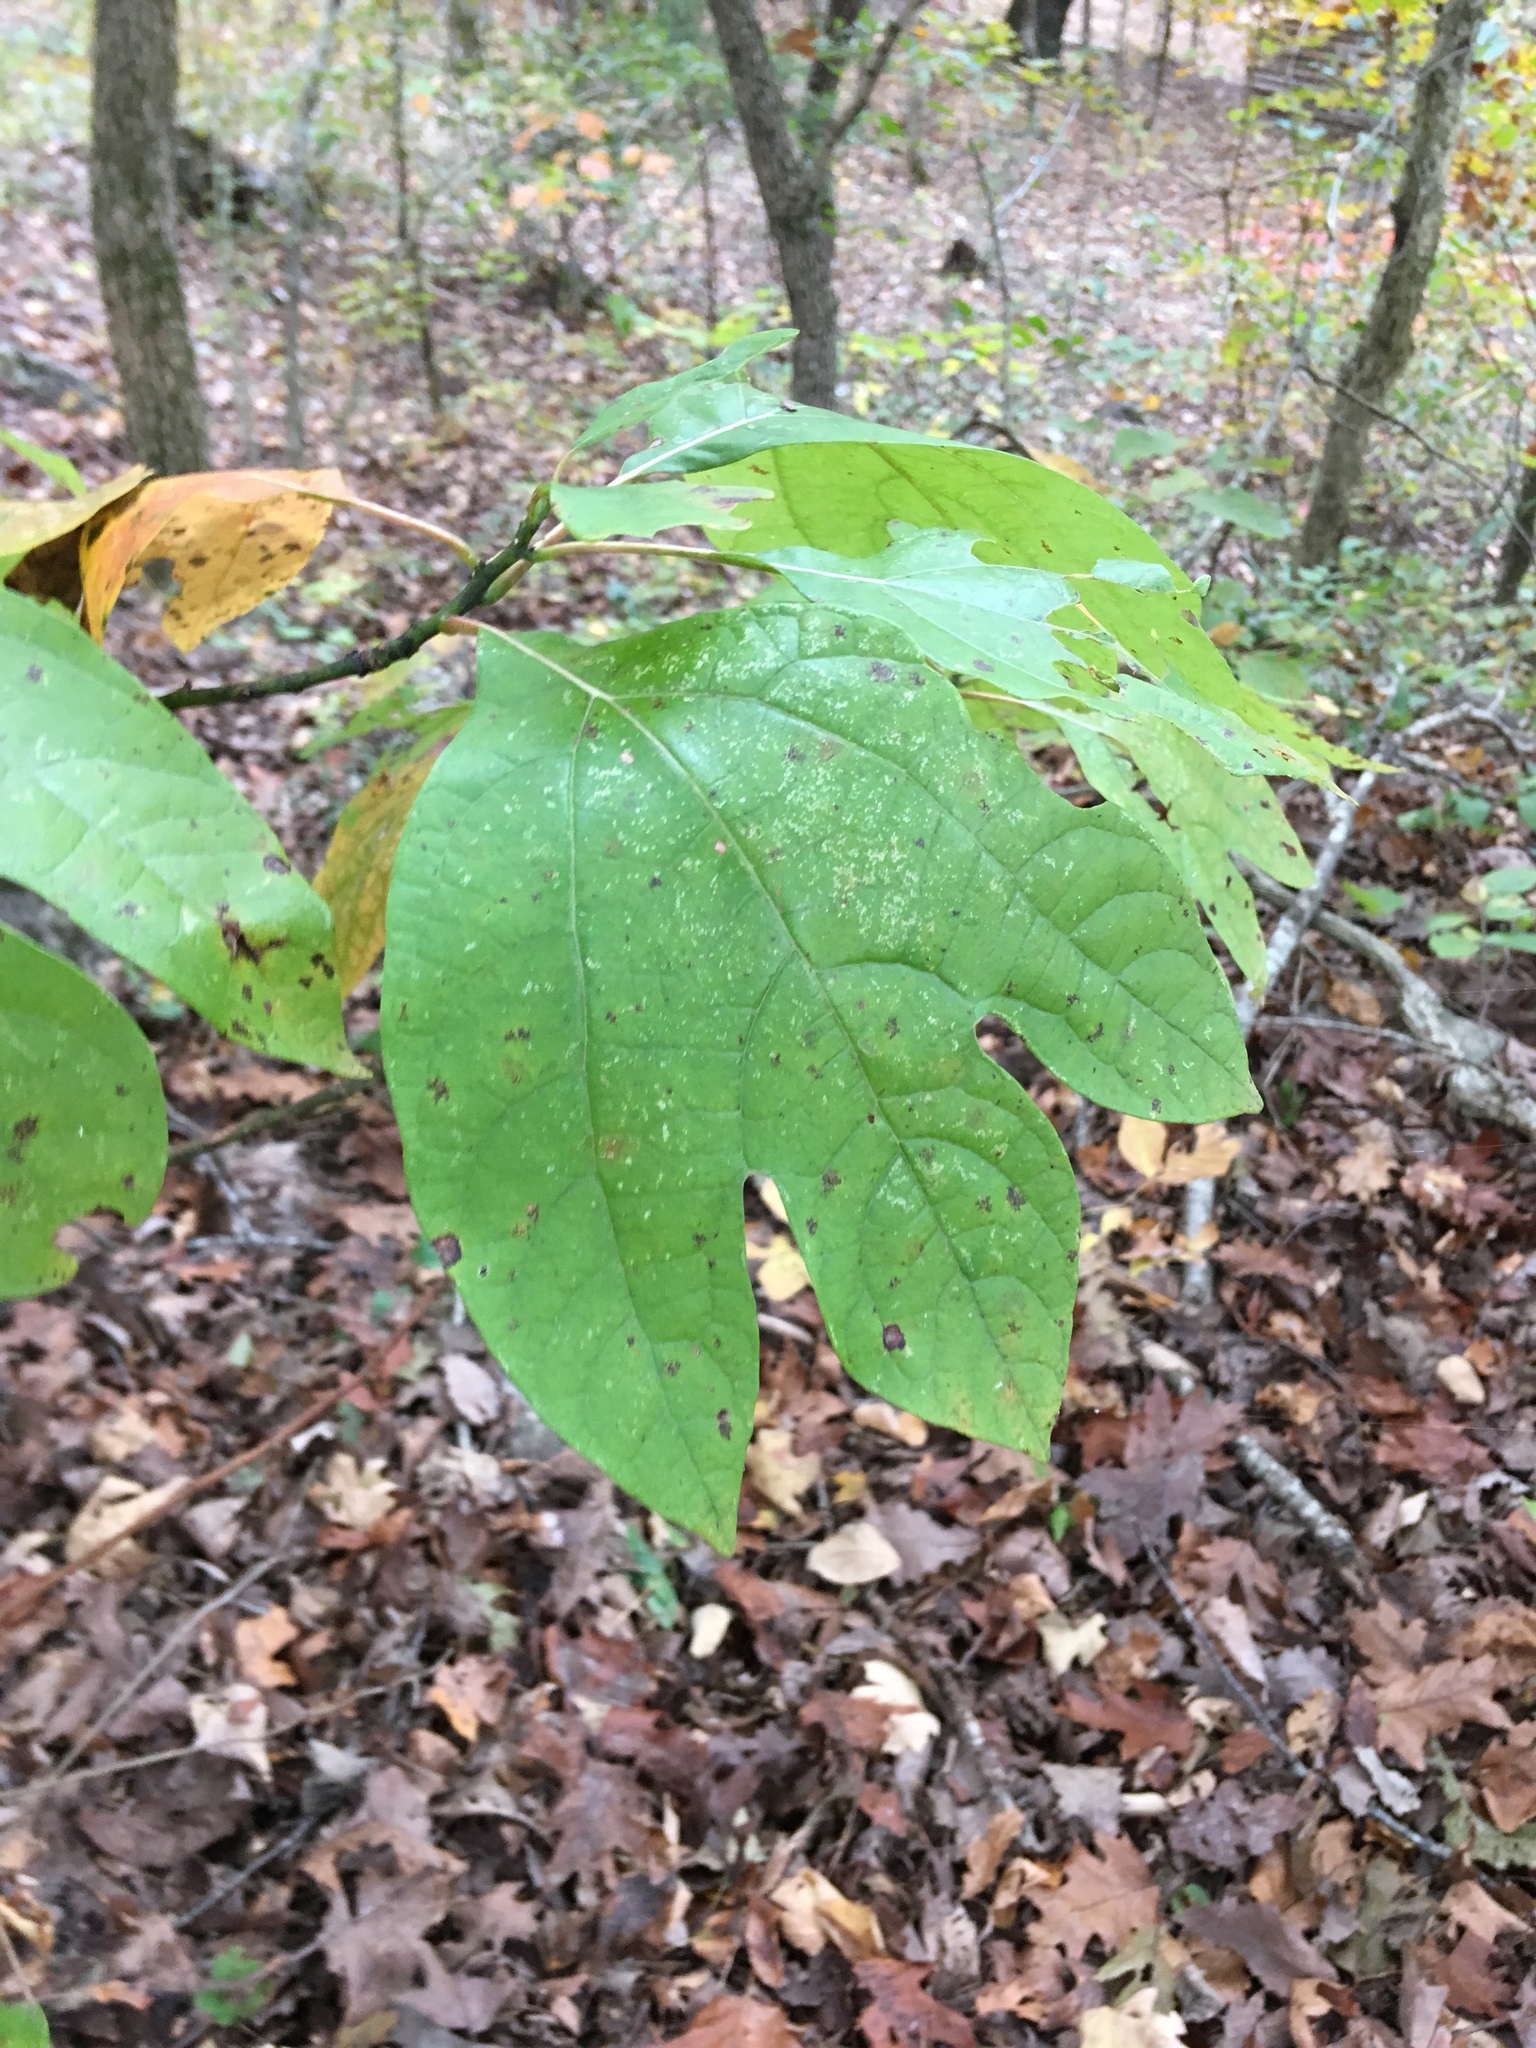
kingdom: Plantae
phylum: Tracheophyta
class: Magnoliopsida
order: Laurales
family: Lauraceae
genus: Sassafras
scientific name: Sassafras albidum
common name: Sassafras
